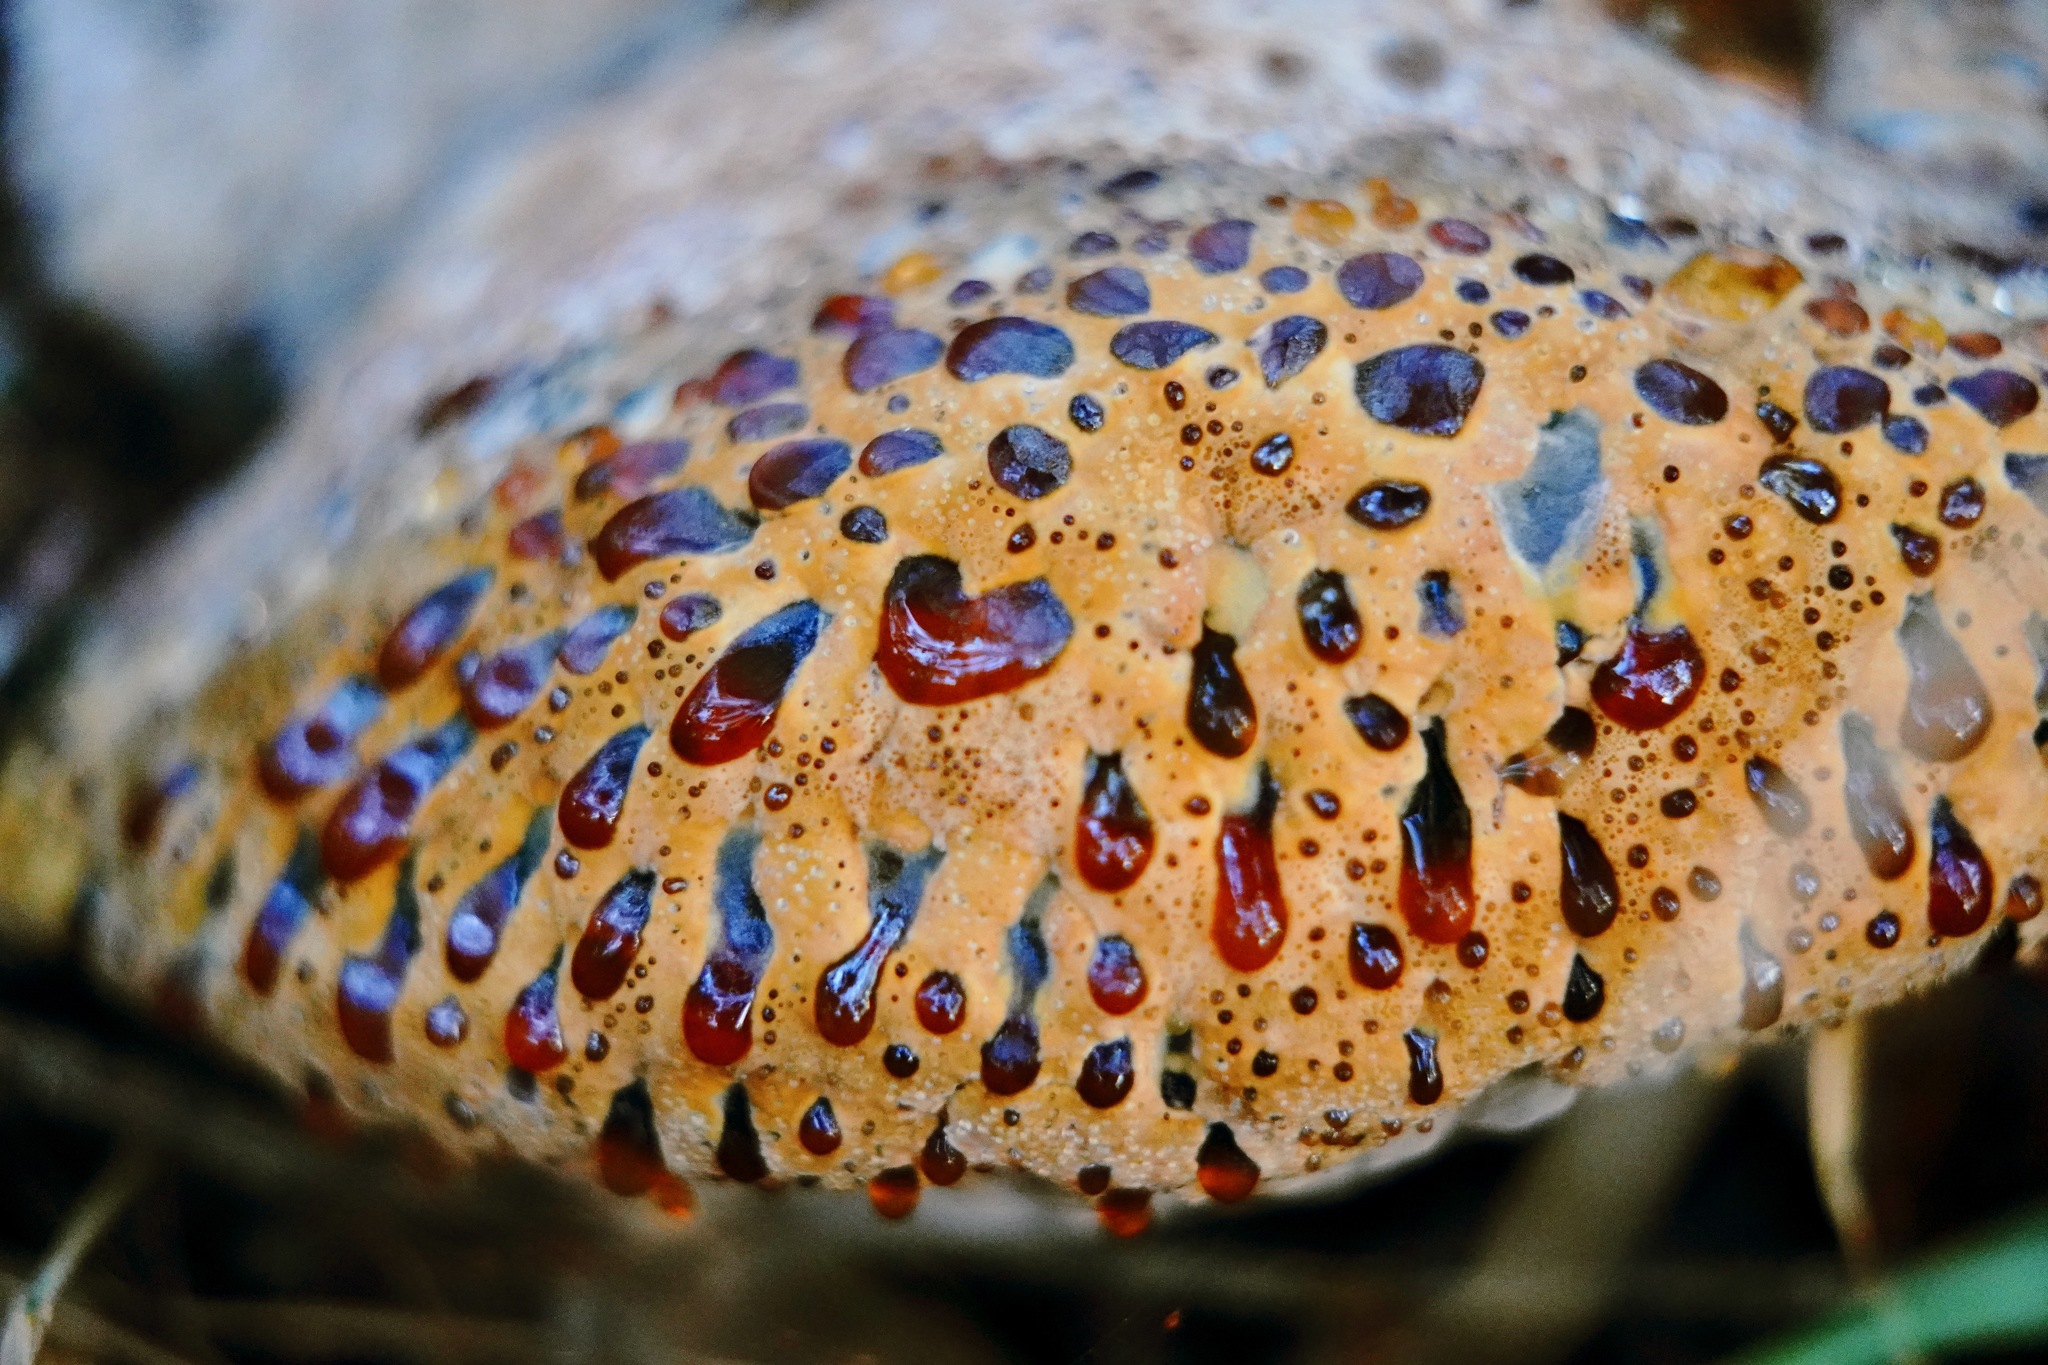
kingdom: Fungi
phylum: Basidiomycota
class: Agaricomycetes
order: Hymenochaetales
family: Hymenochaetaceae
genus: Pseudoinonotus
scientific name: Pseudoinonotus dryadeus
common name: Oak bracket
